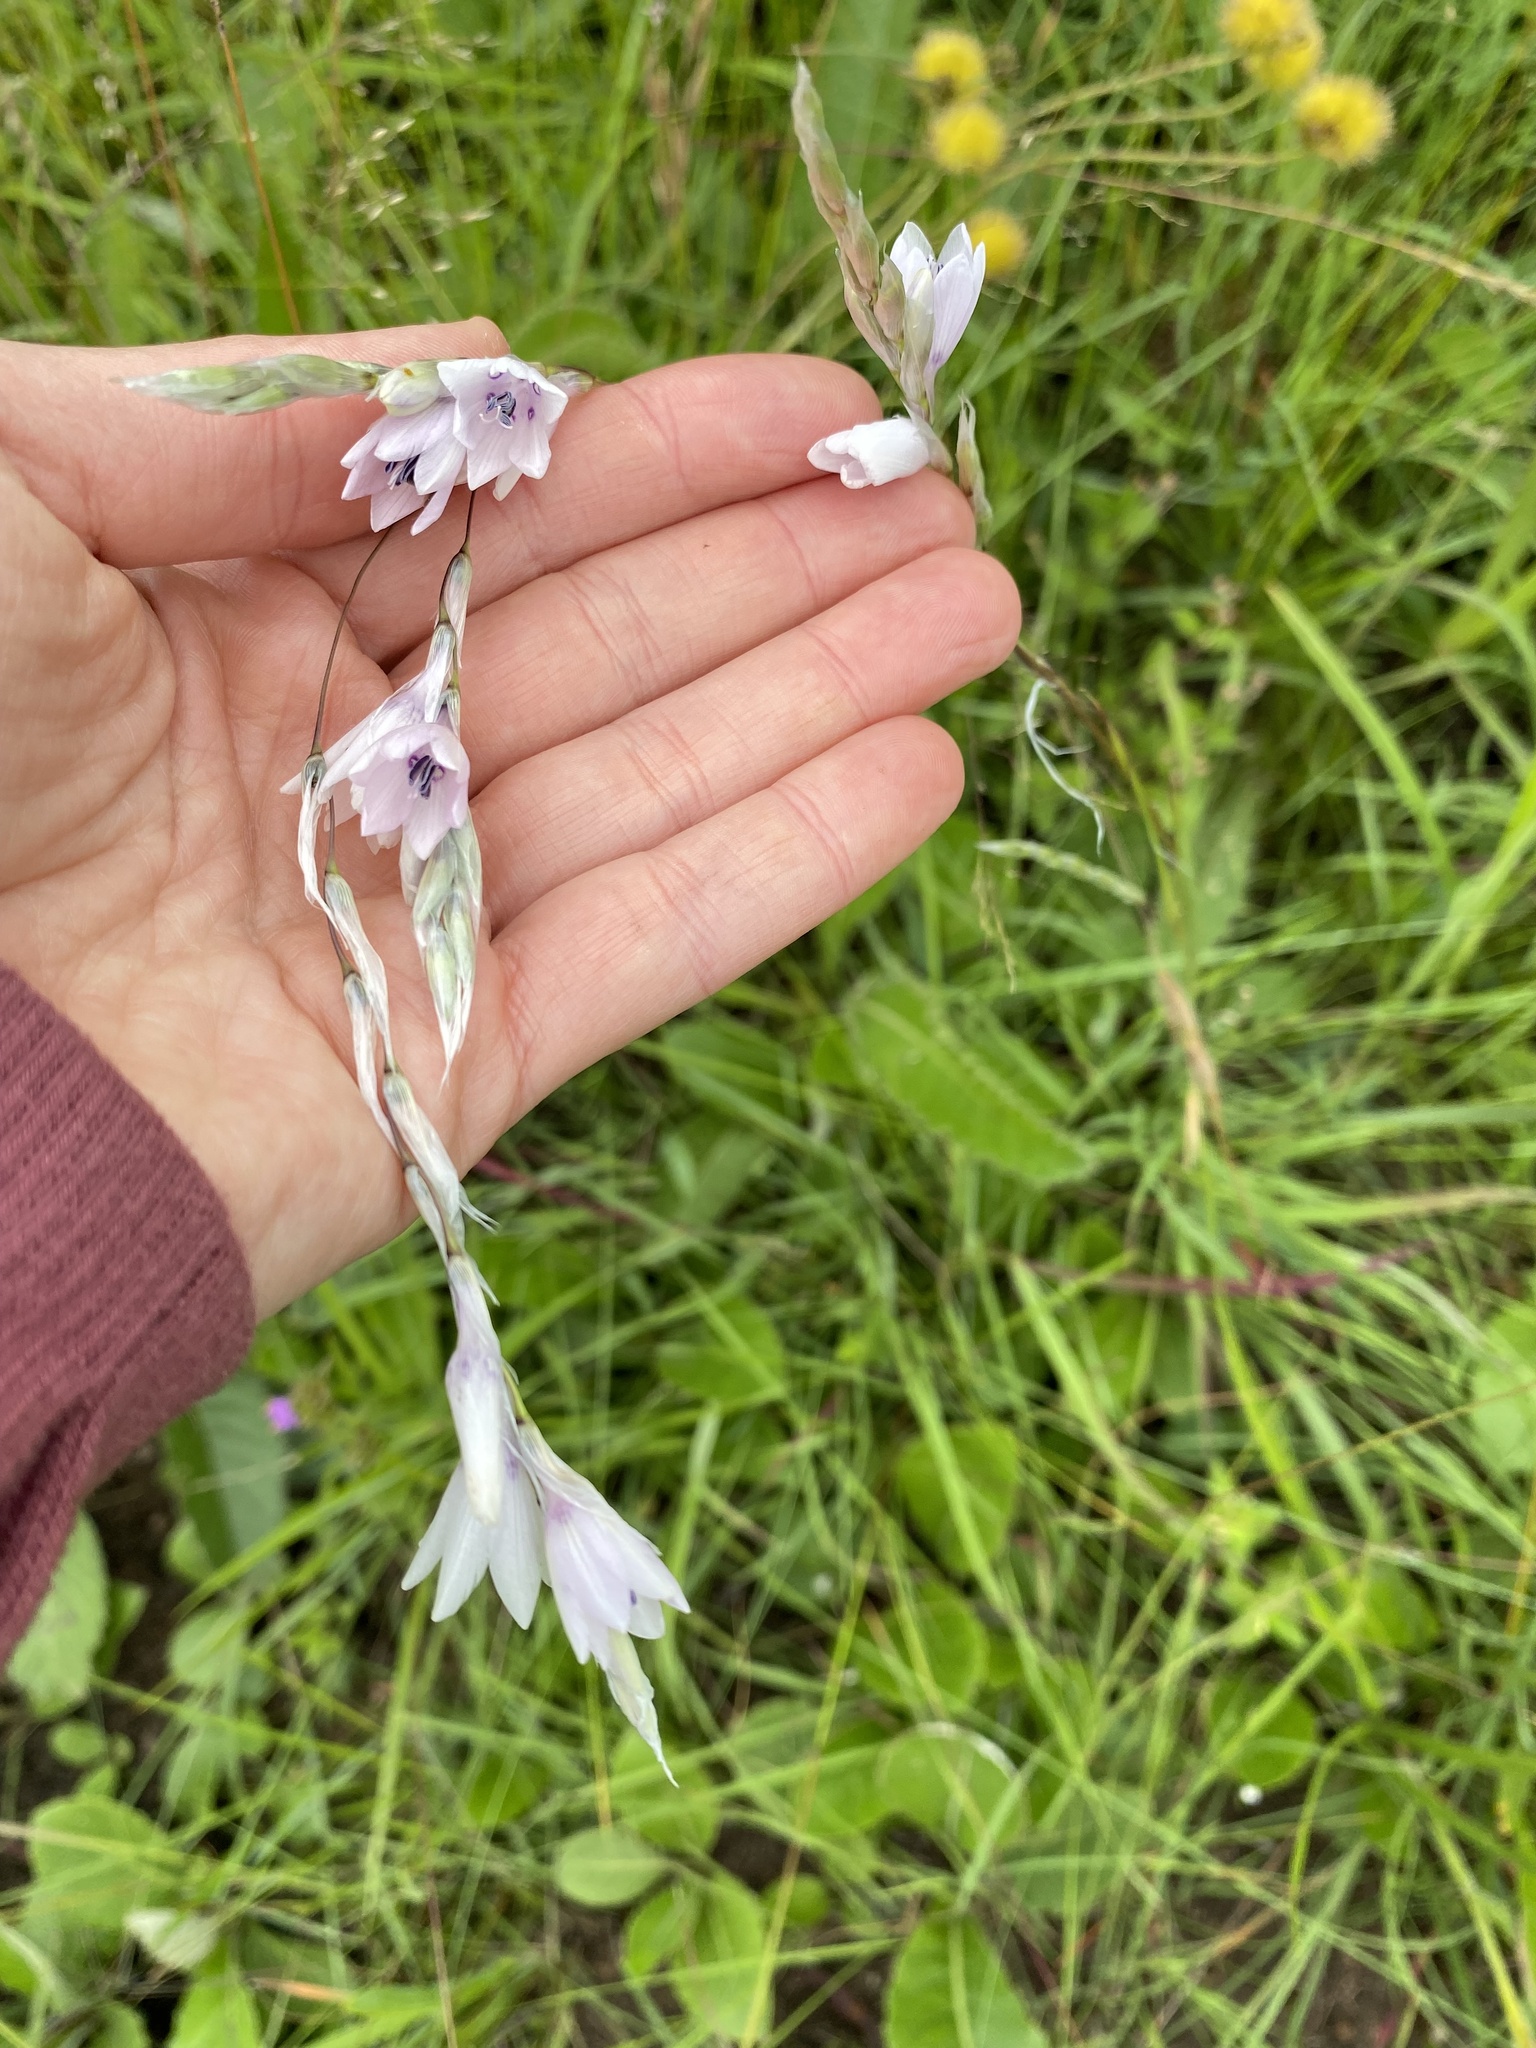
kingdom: Plantae
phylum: Tracheophyta
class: Liliopsida
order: Asparagales
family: Iridaceae
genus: Dierama
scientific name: Dierama igneum
